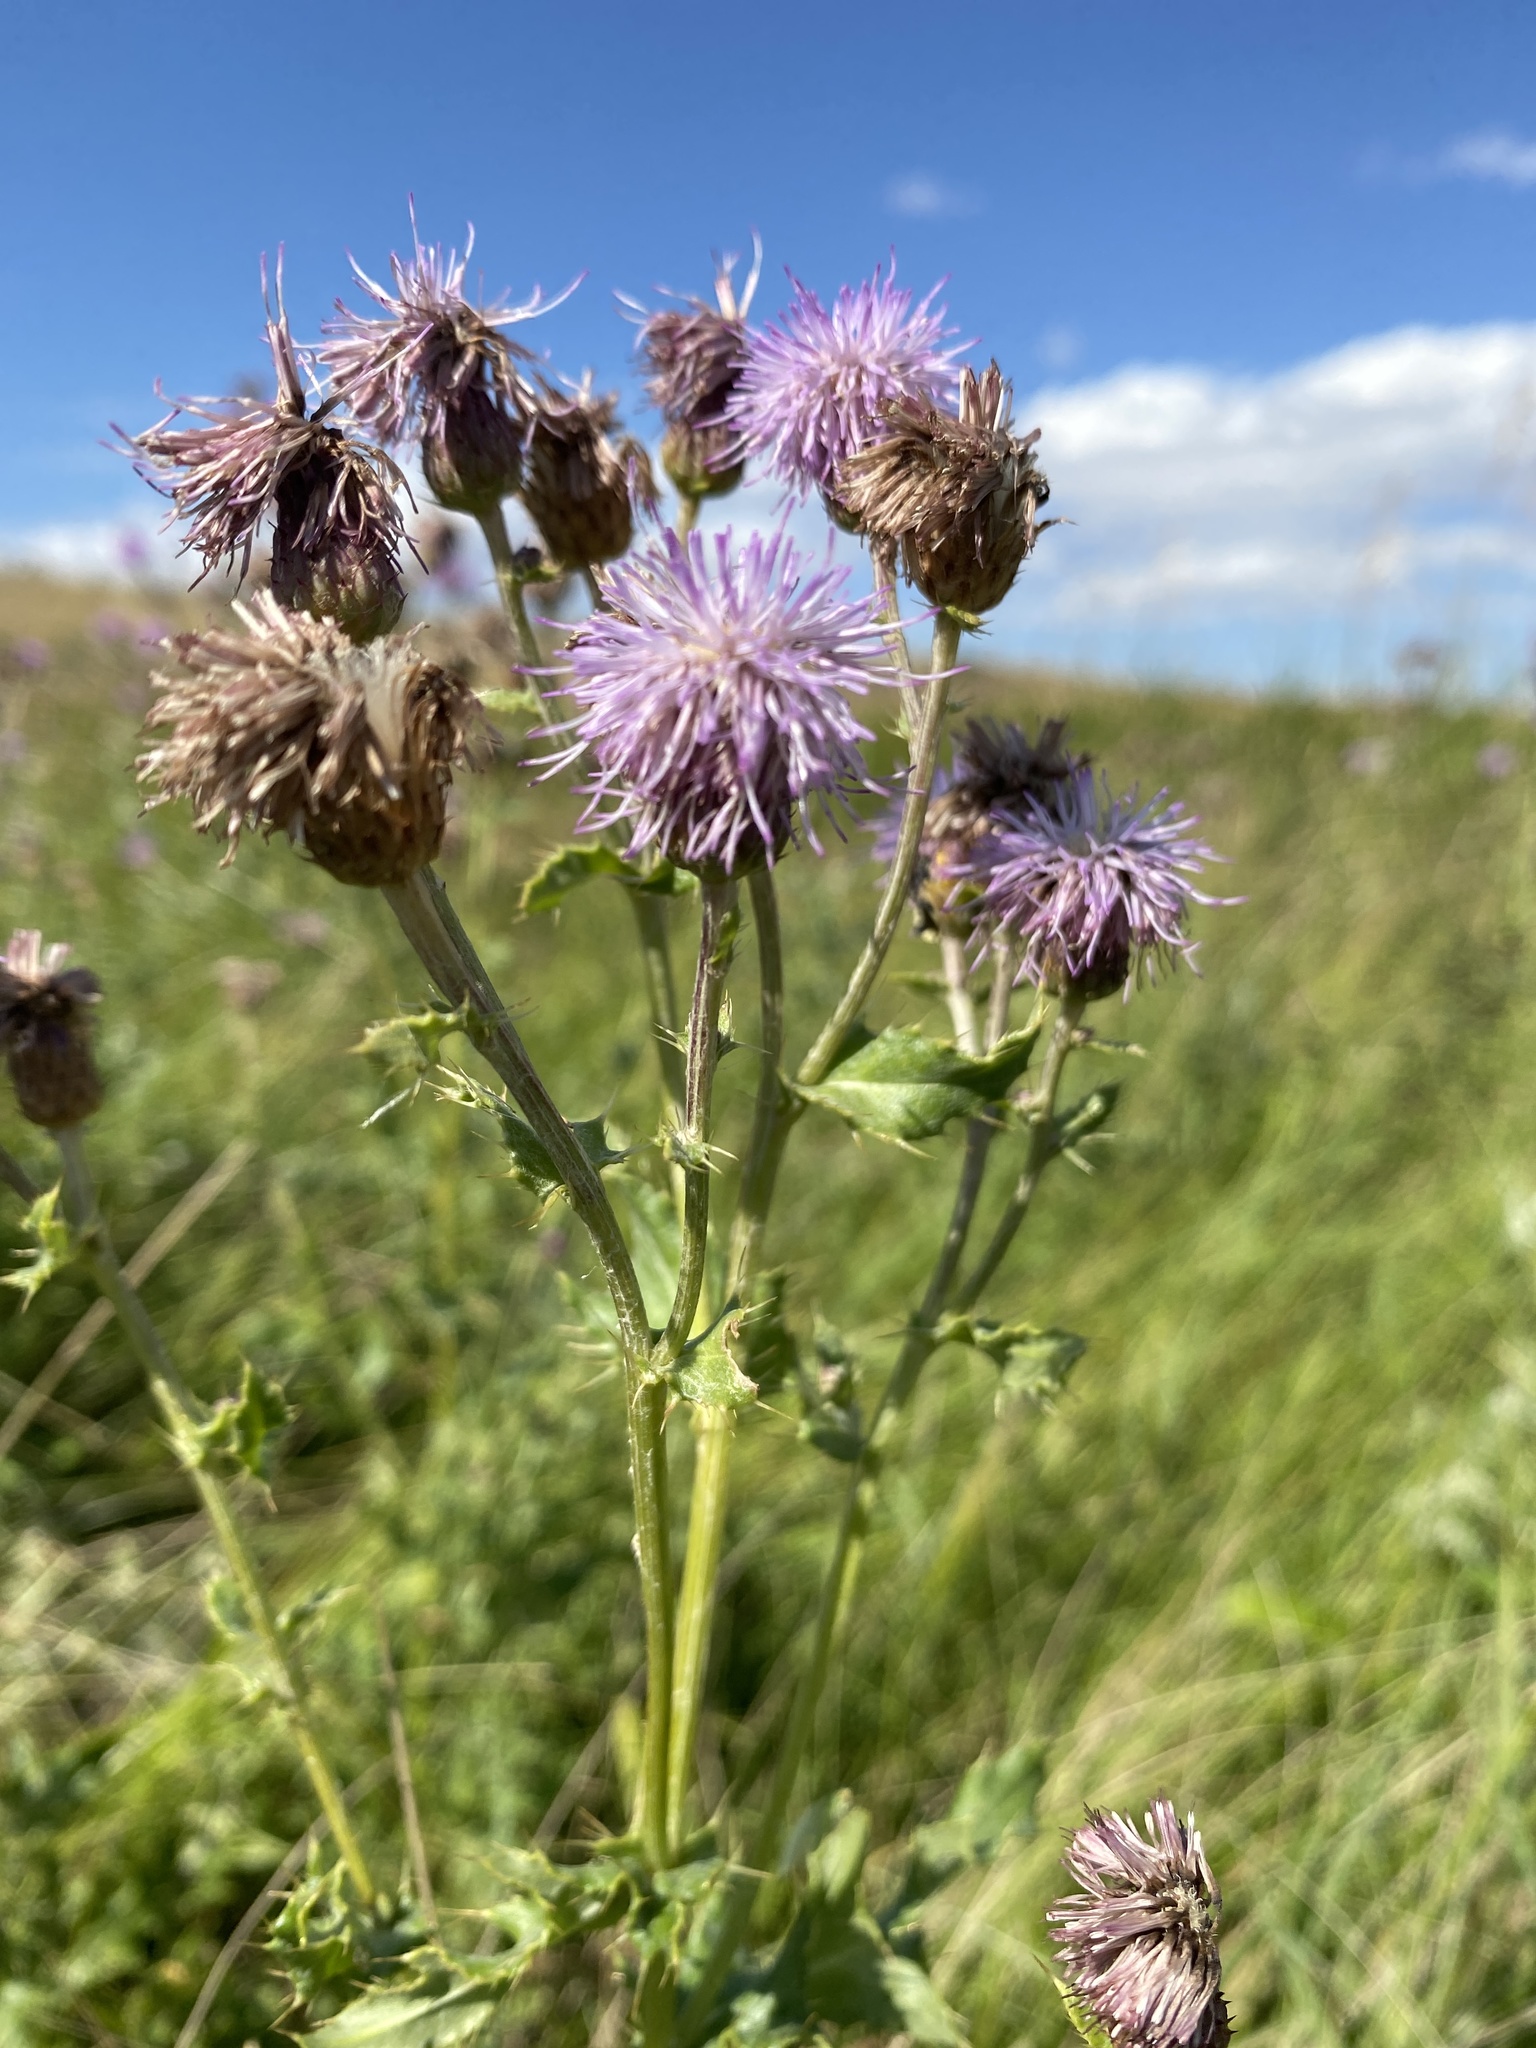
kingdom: Plantae
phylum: Tracheophyta
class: Magnoliopsida
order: Asterales
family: Asteraceae
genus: Cirsium
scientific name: Cirsium arvense
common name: Creeping thistle
